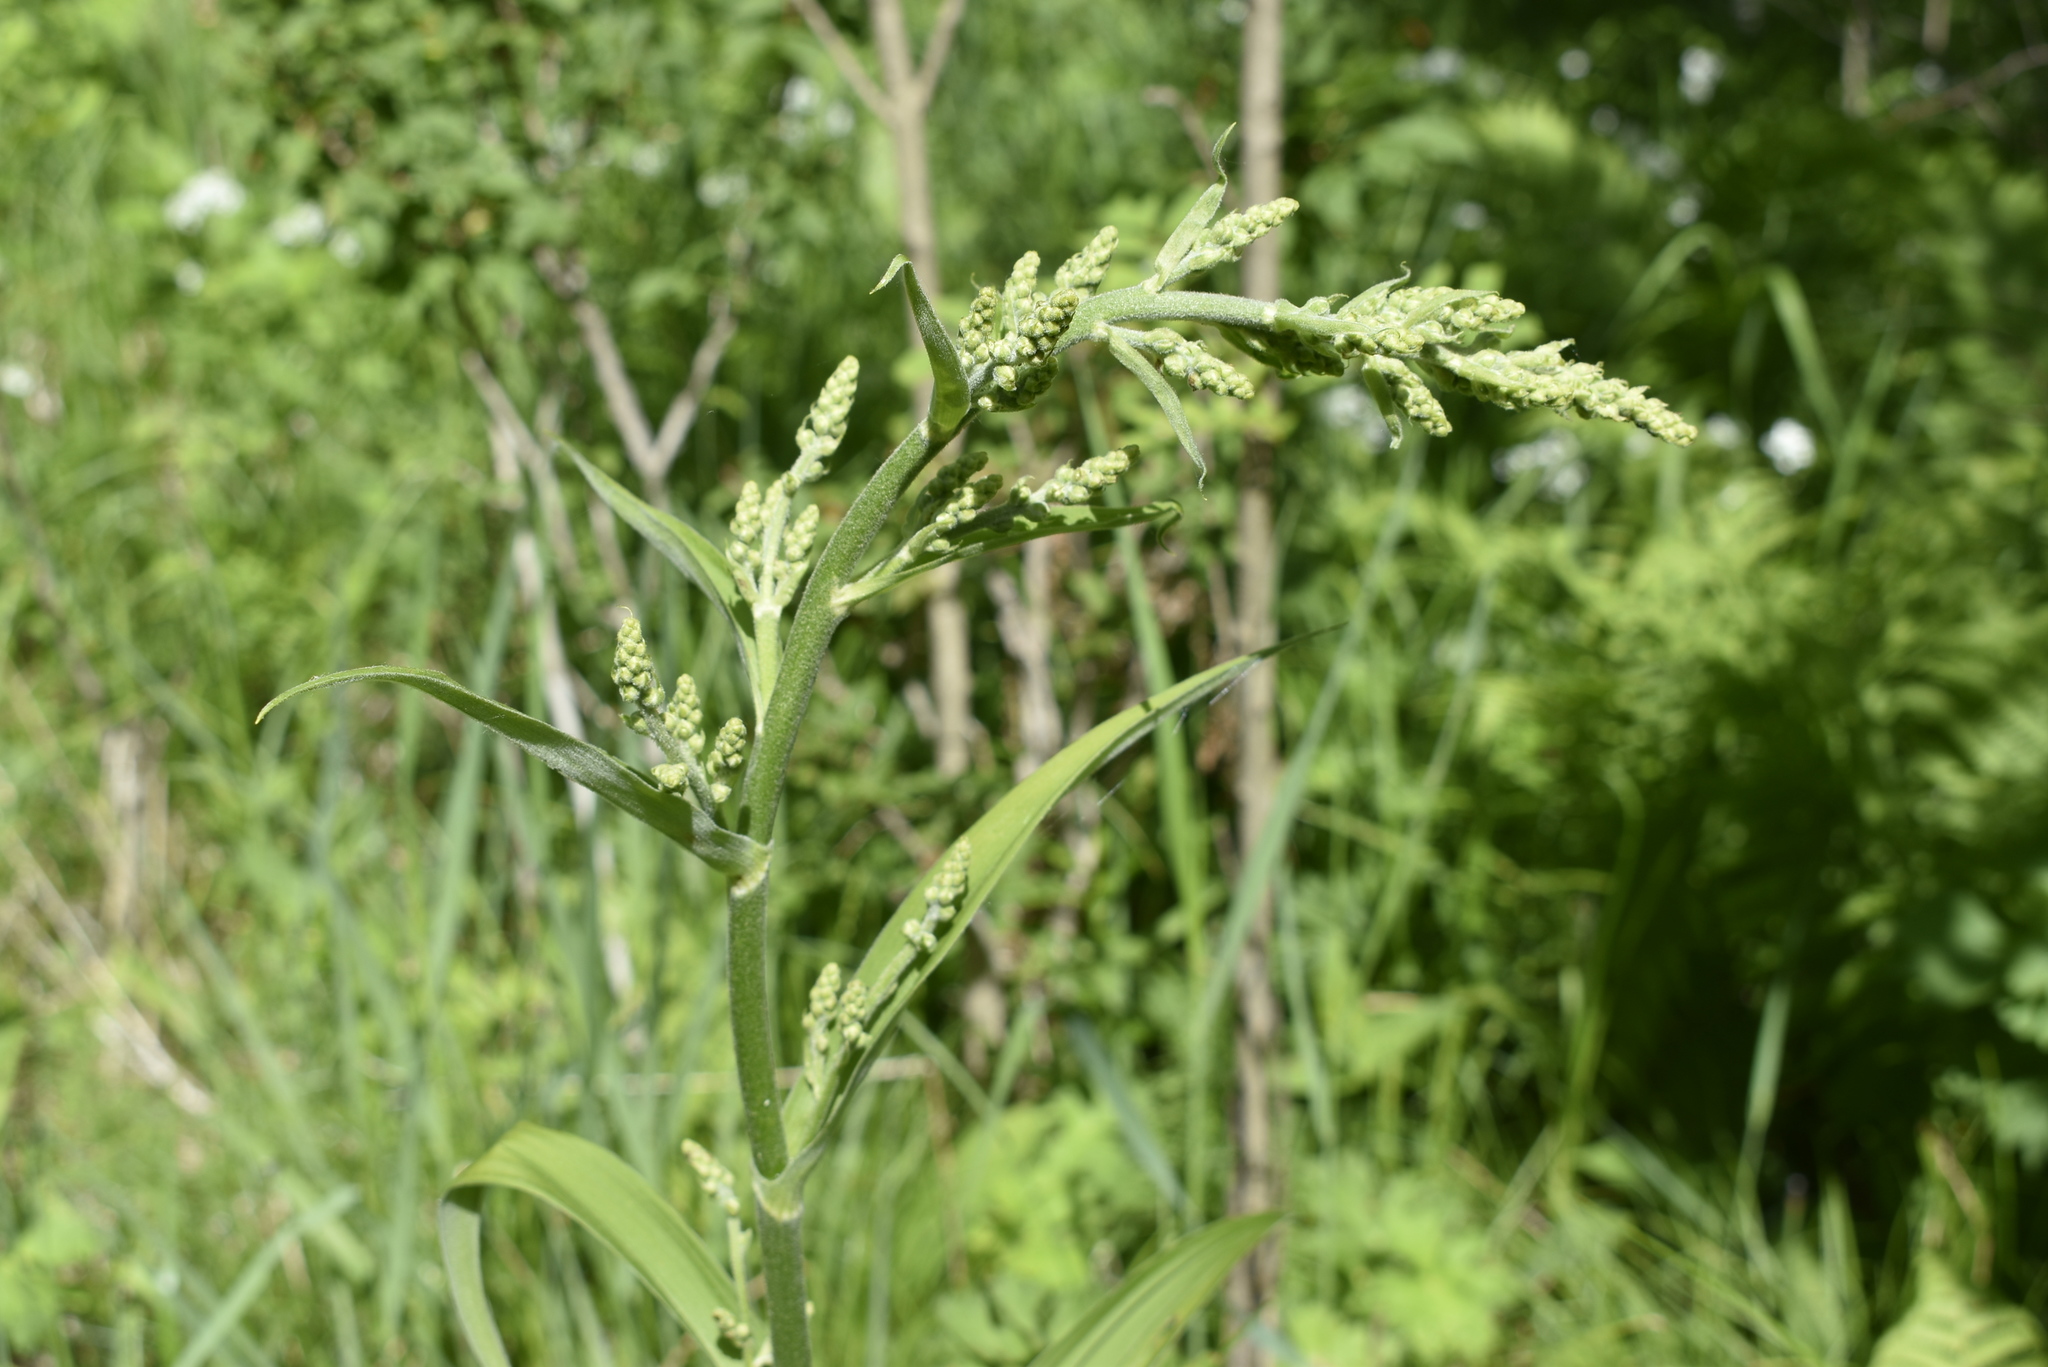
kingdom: Plantae
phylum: Tracheophyta
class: Liliopsida
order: Liliales
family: Melanthiaceae
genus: Veratrum
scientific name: Veratrum dahuricum
